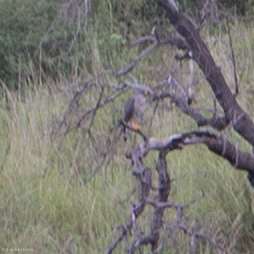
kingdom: Animalia
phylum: Chordata
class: Aves
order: Accipitriformes
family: Accipitridae
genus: Buteo
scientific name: Buteo nitidus
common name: Grey-lined hawk
